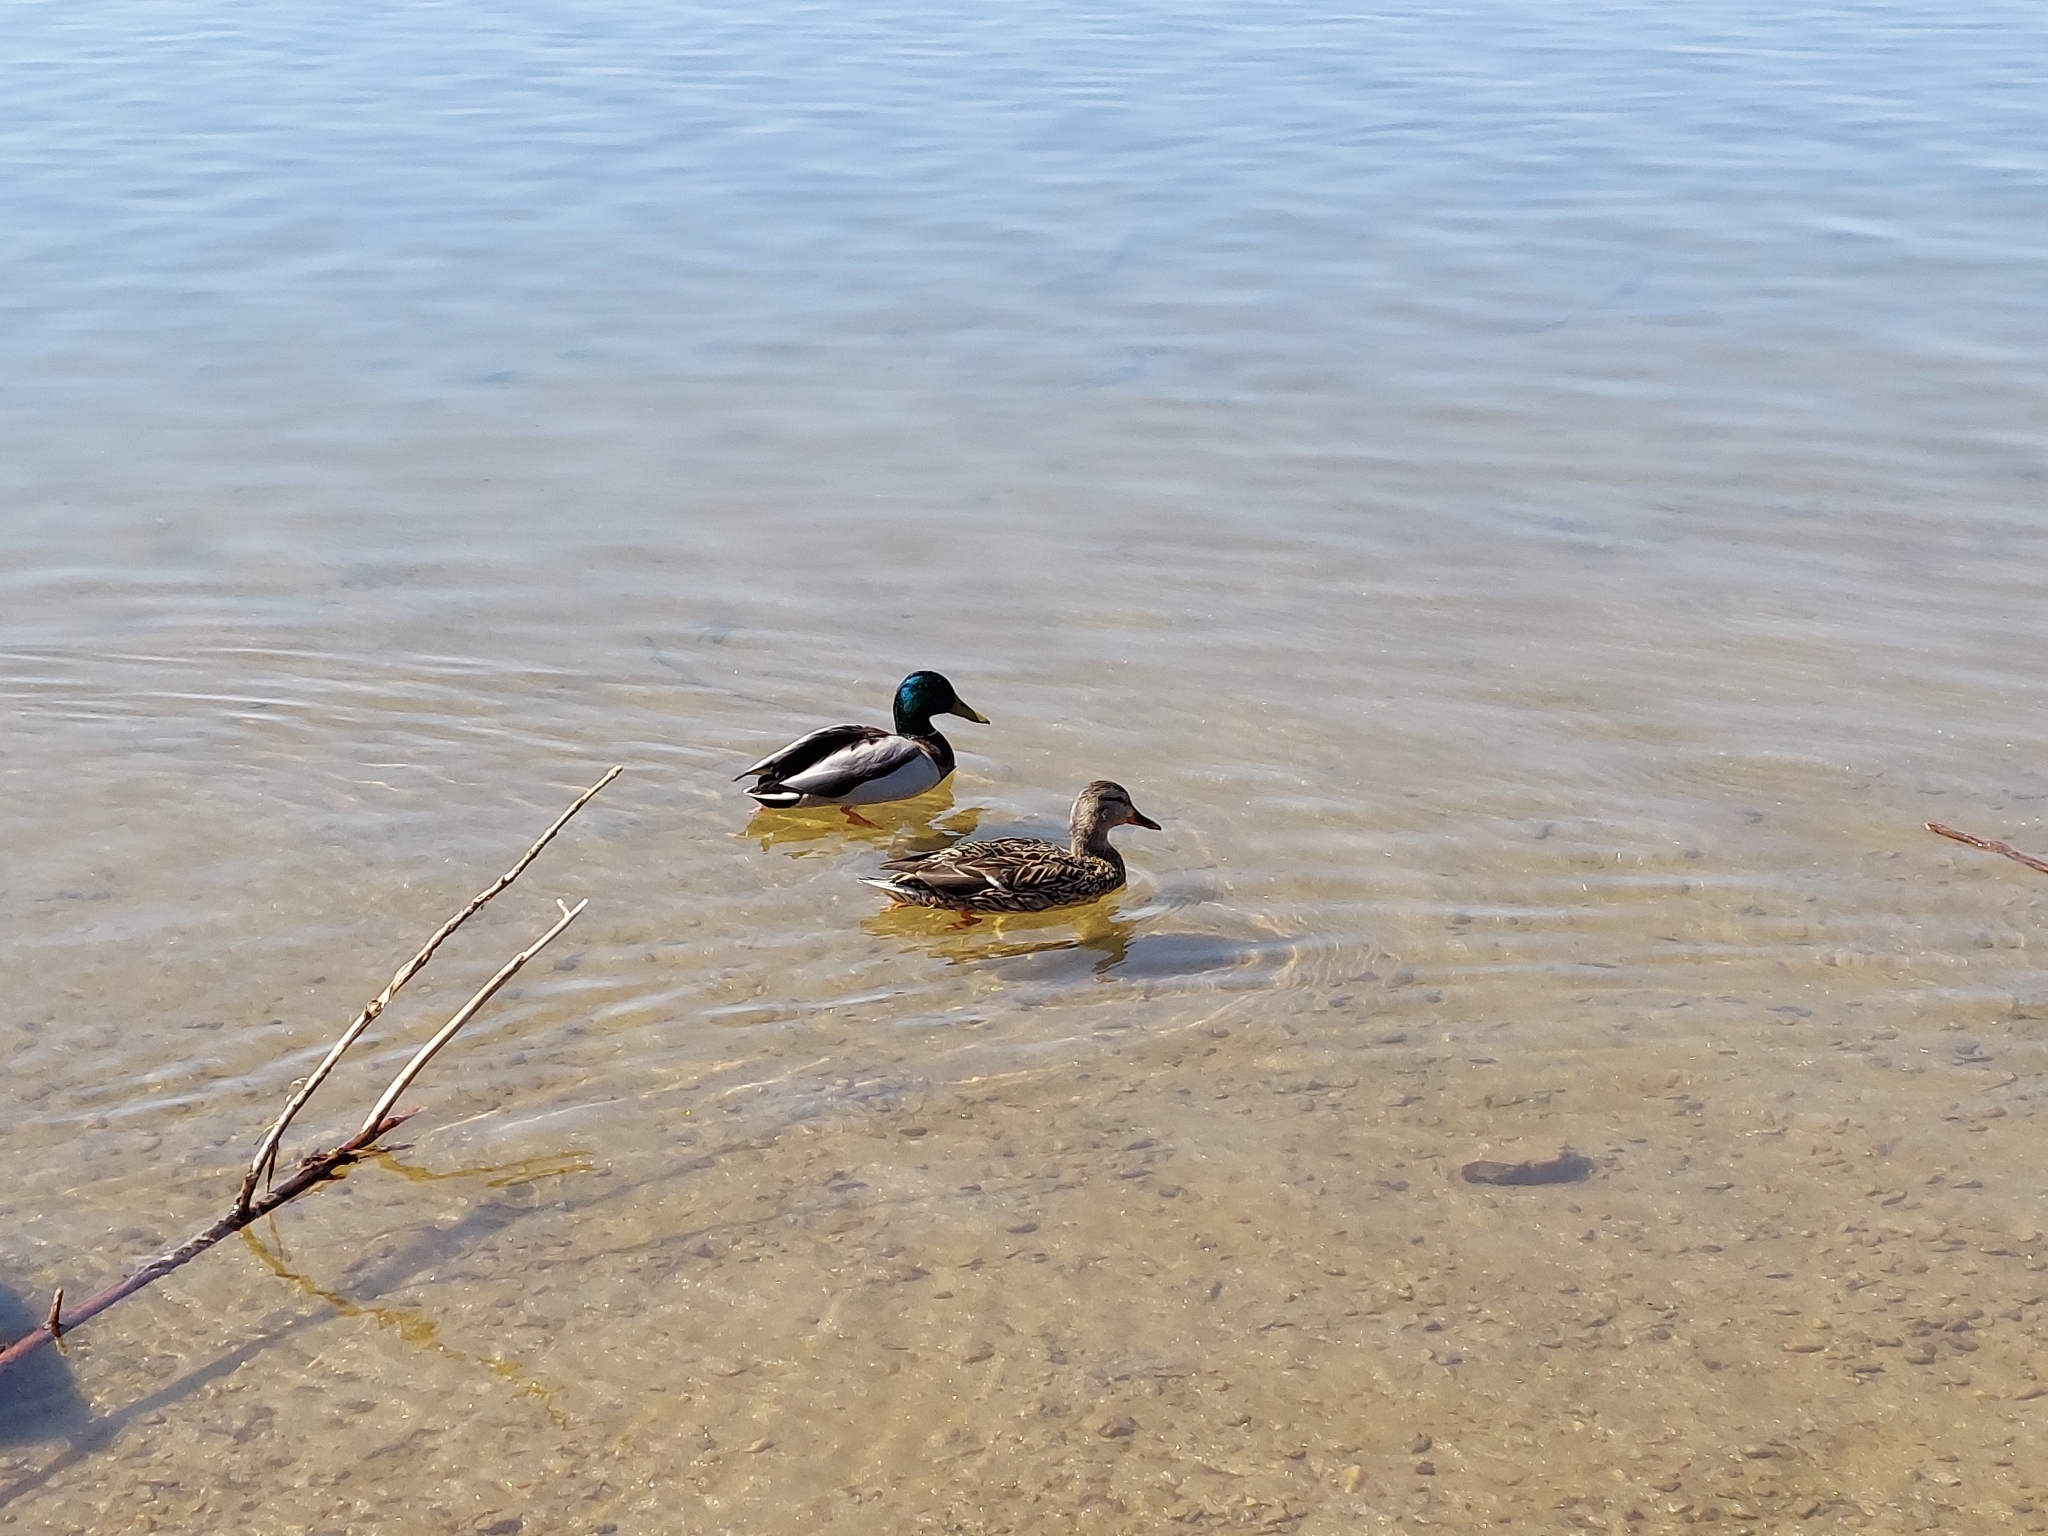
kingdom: Animalia
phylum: Chordata
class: Aves
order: Anseriformes
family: Anatidae
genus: Anas
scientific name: Anas platyrhynchos
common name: Mallard
